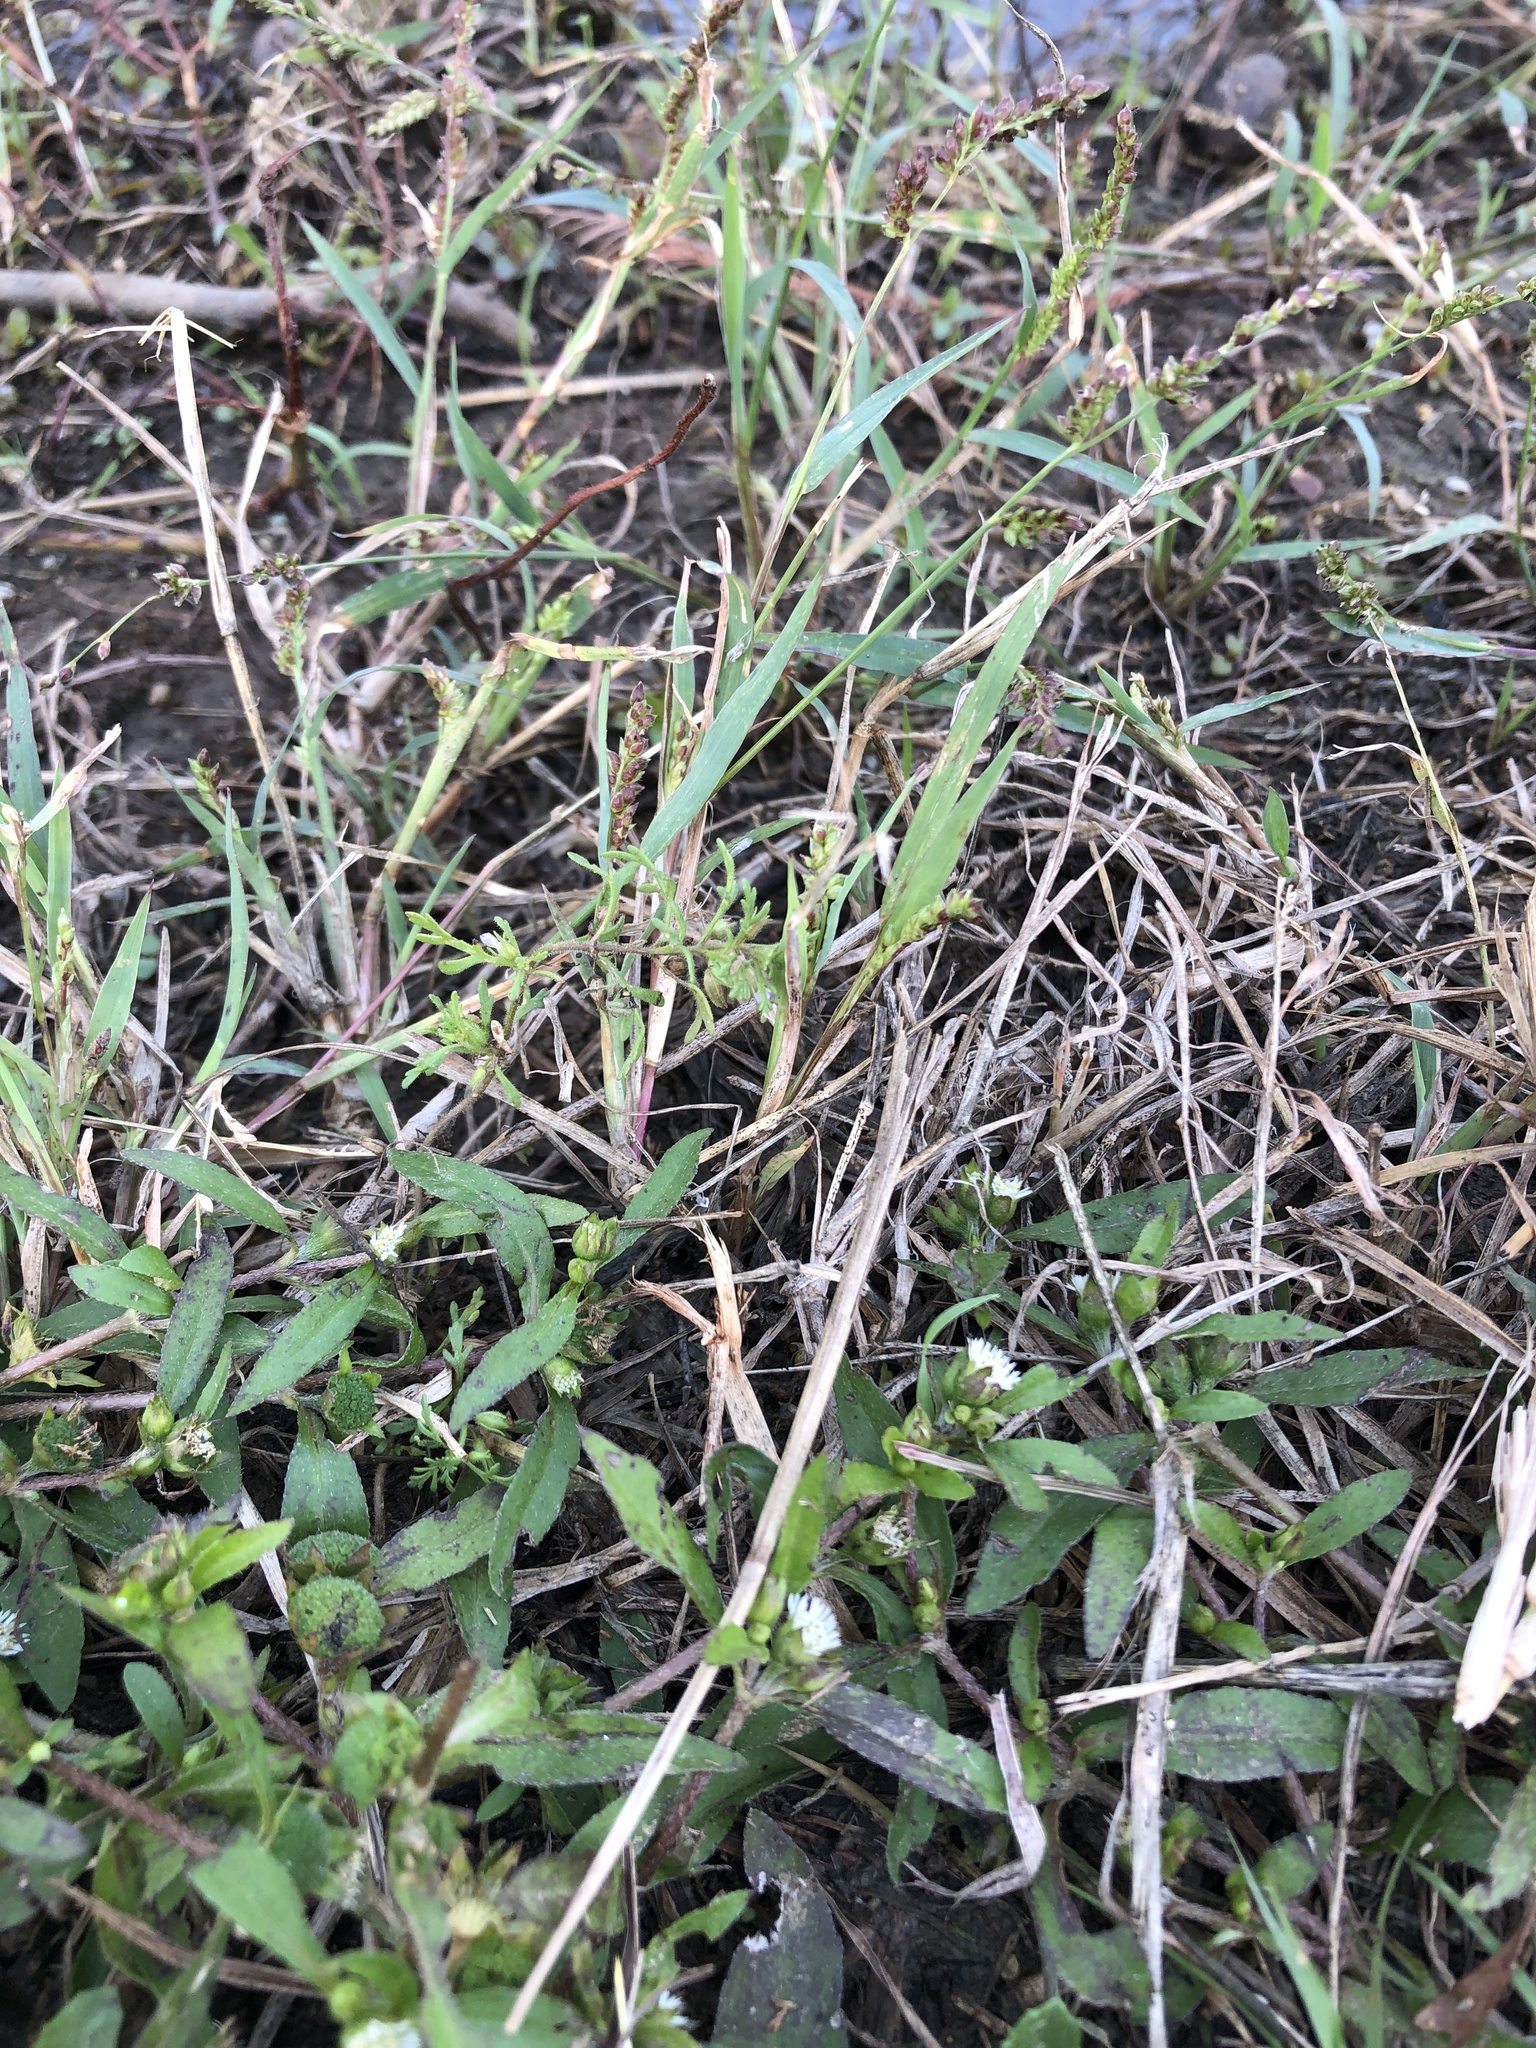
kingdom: Plantae
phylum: Tracheophyta
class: Magnoliopsida
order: Lamiales
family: Plantaginaceae
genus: Leucospora
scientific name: Leucospora multifida
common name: Narrow-leaf paleseed
